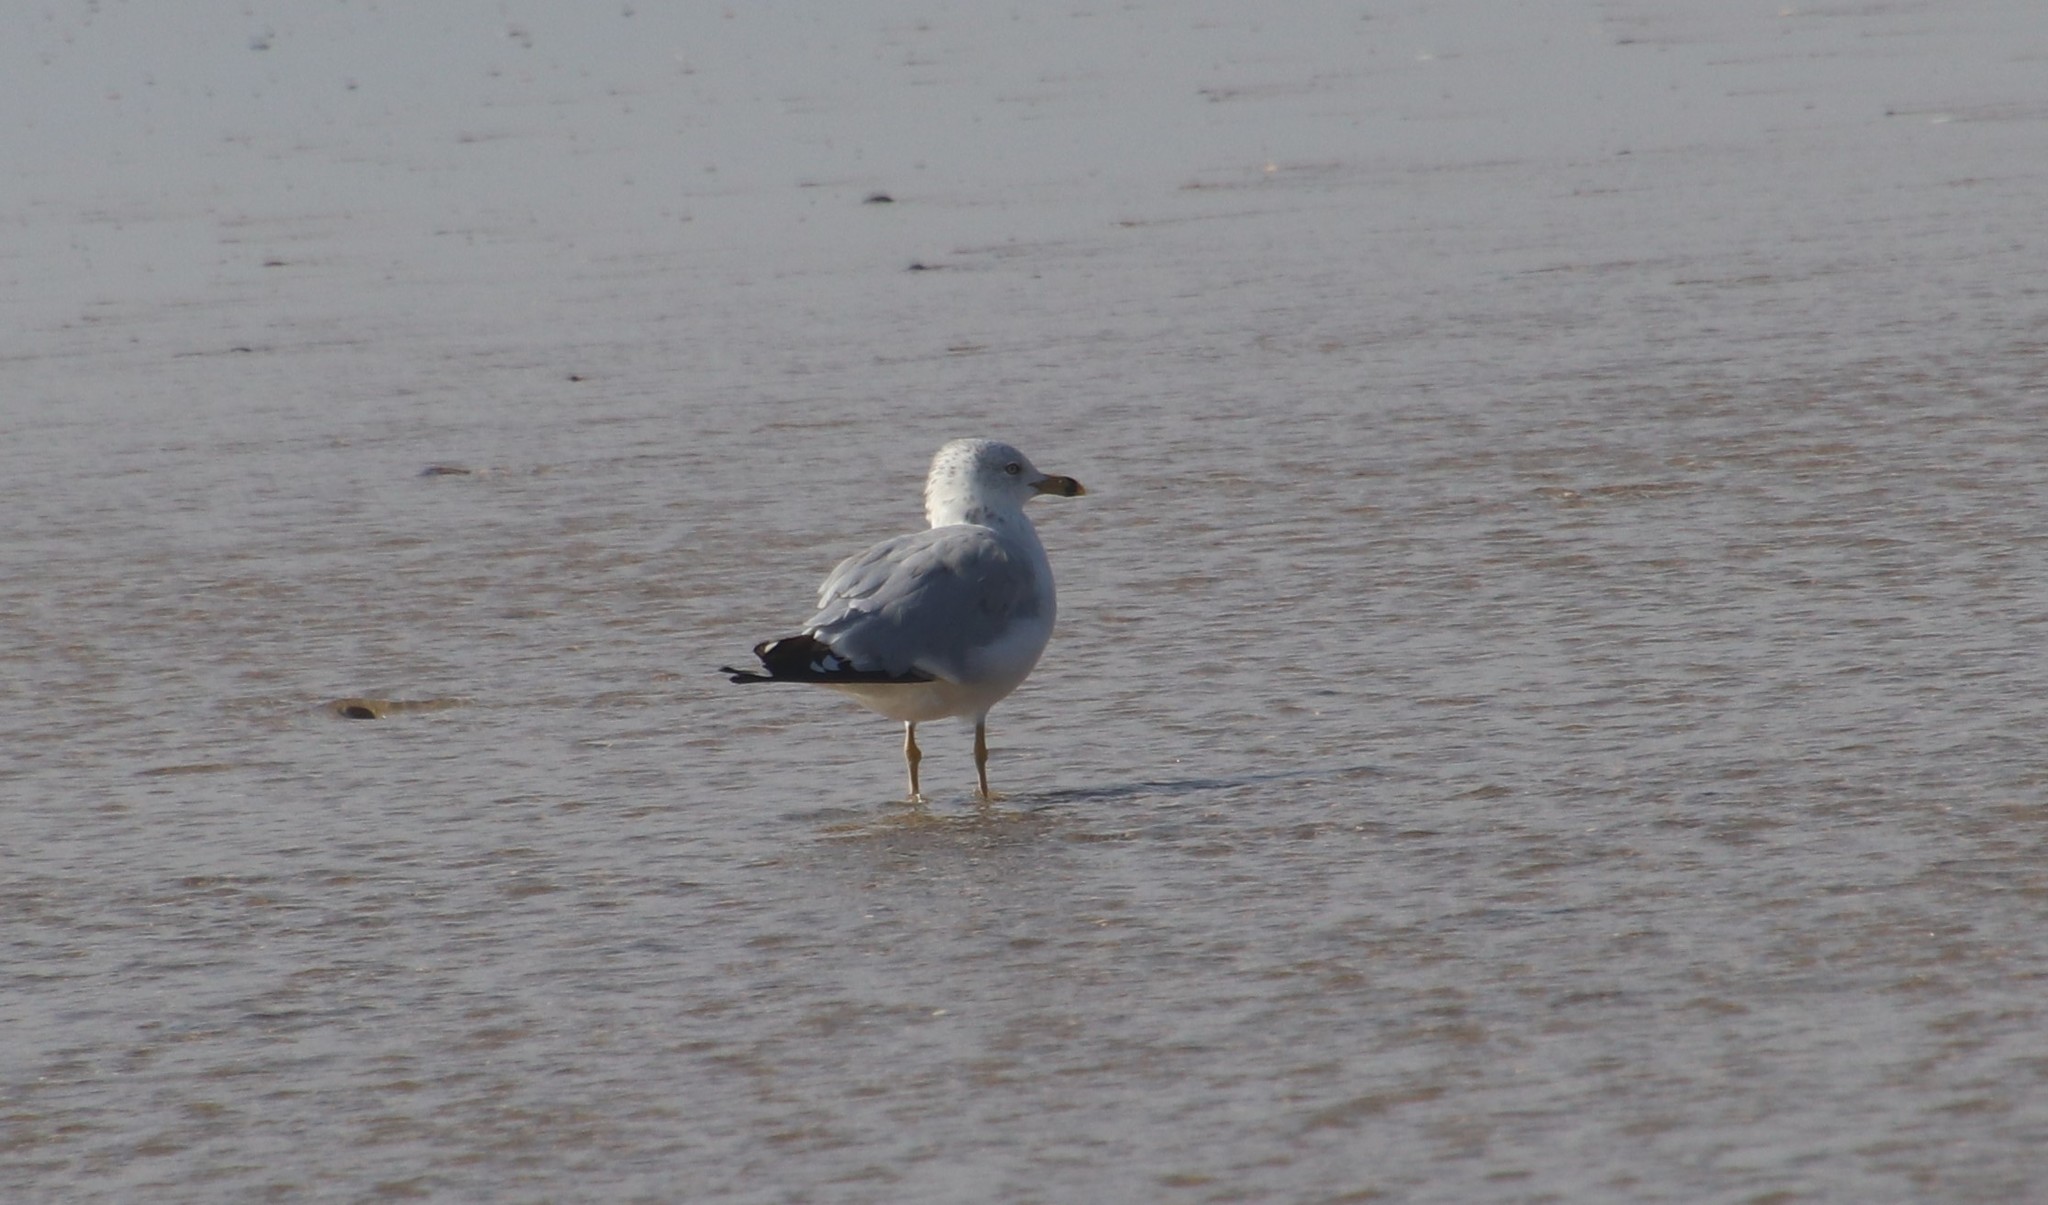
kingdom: Animalia
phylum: Chordata
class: Aves
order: Charadriiformes
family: Laridae
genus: Larus
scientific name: Larus delawarensis
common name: Ring-billed gull
